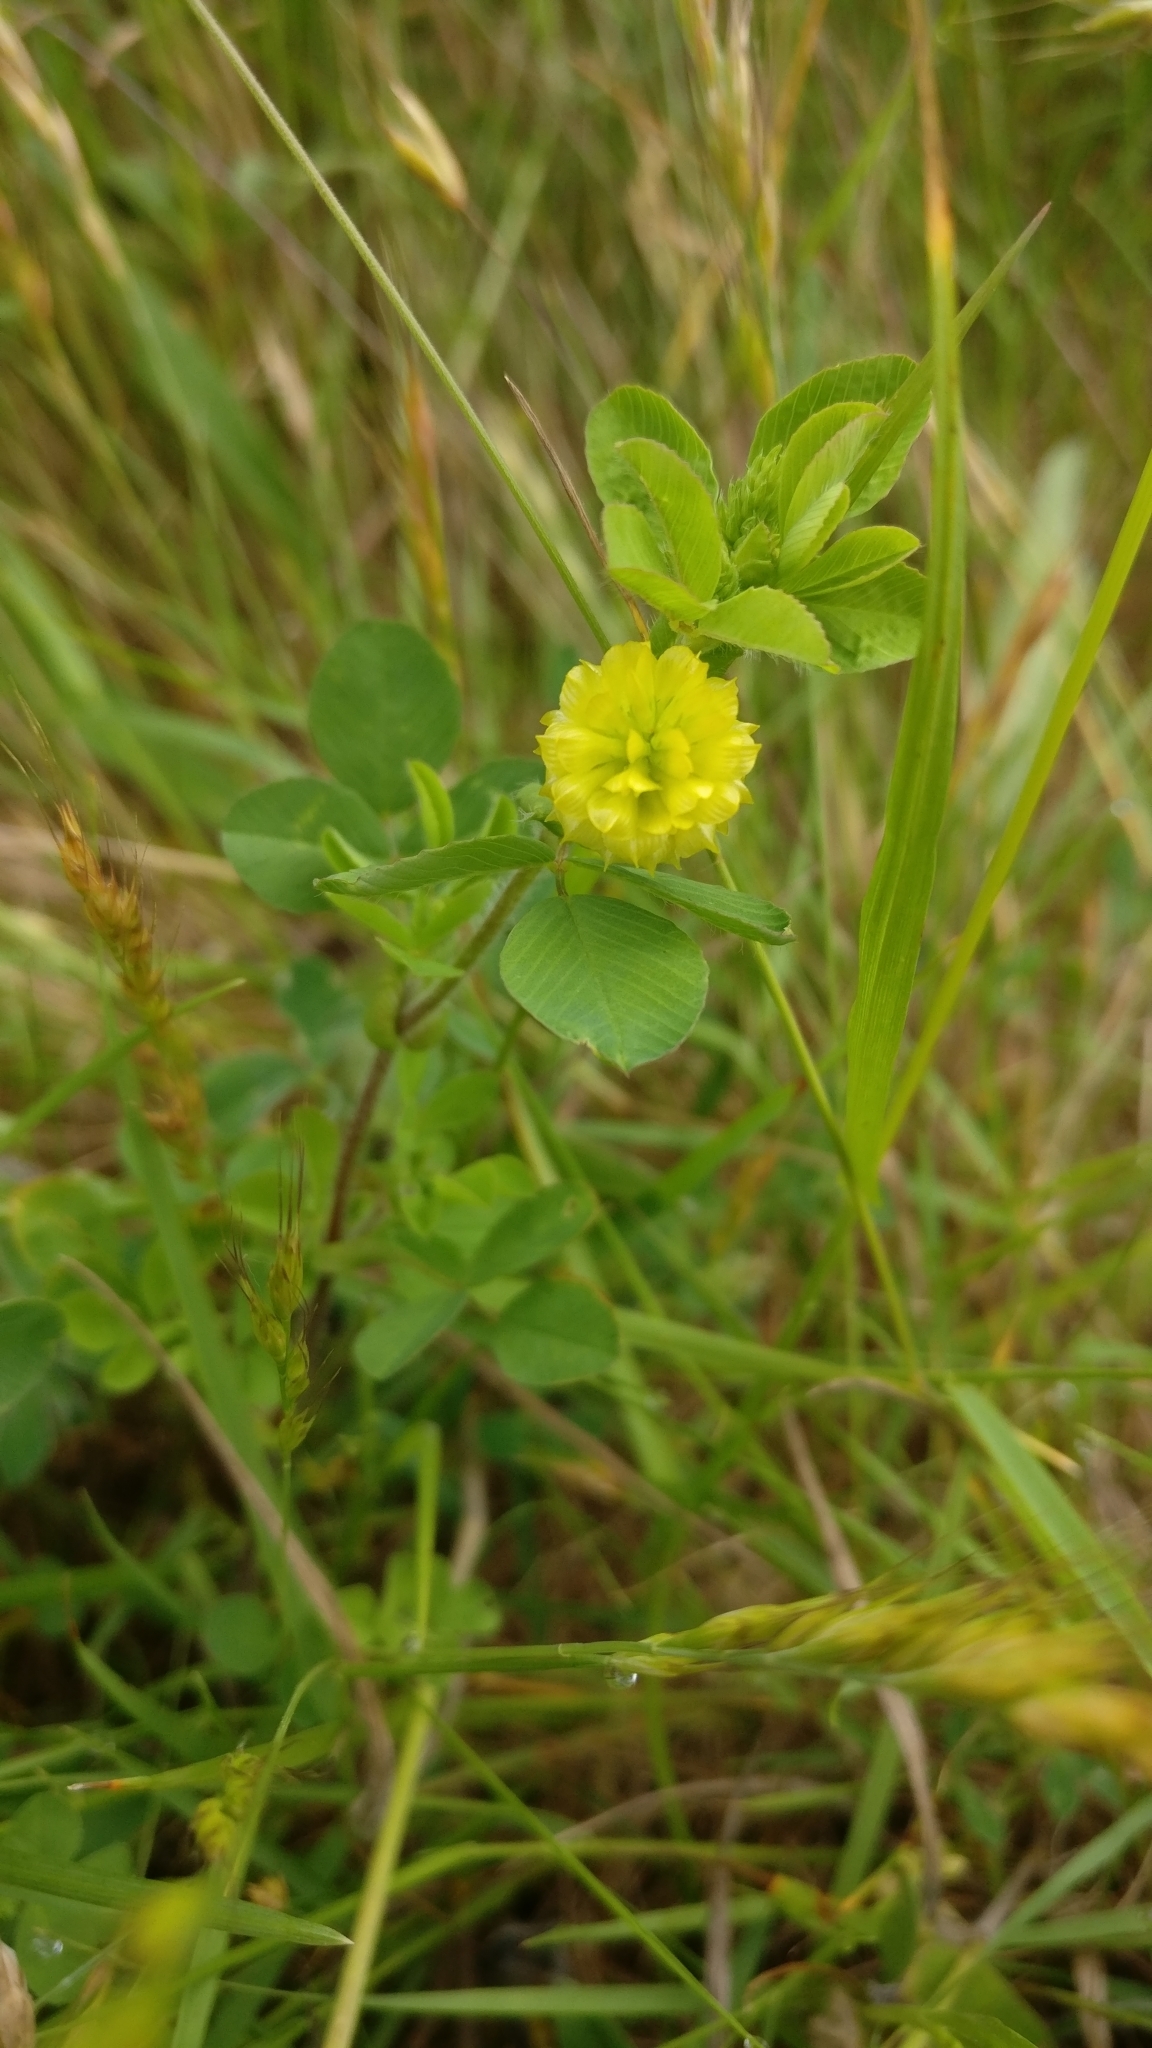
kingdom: Plantae
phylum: Tracheophyta
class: Magnoliopsida
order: Fabales
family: Fabaceae
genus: Trifolium
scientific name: Trifolium campestre
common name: Field clover
